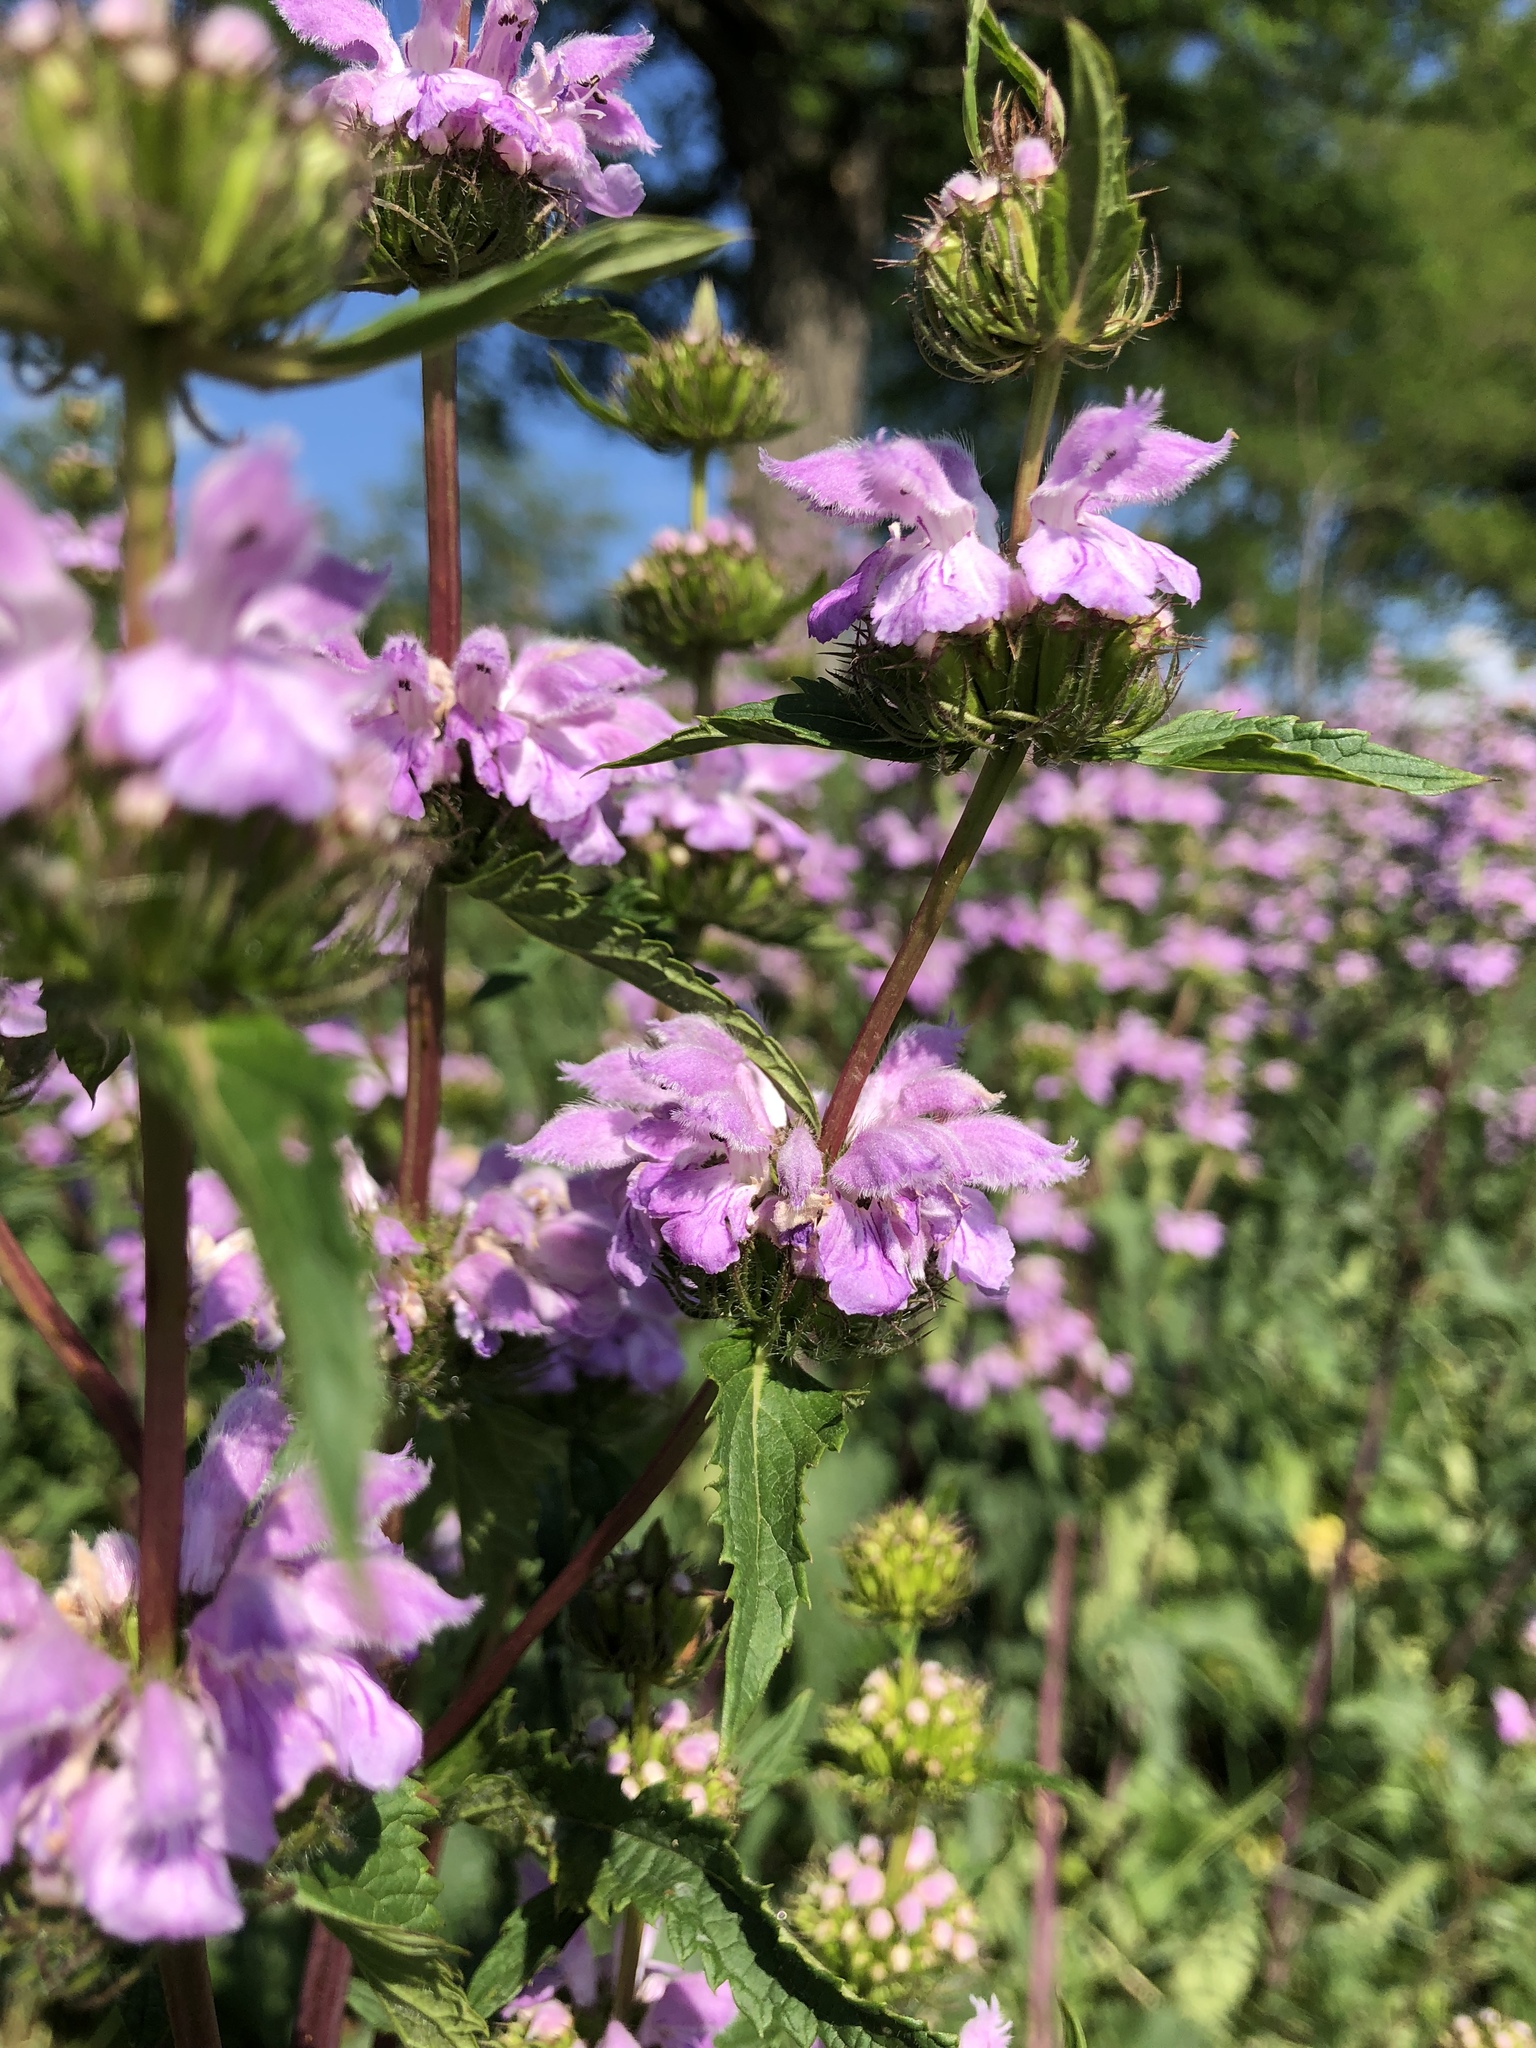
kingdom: Plantae
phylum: Tracheophyta
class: Magnoliopsida
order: Lamiales
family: Lamiaceae
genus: Phlomoides
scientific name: Phlomoides tuberosa
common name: Tuberous jerusalem sage
